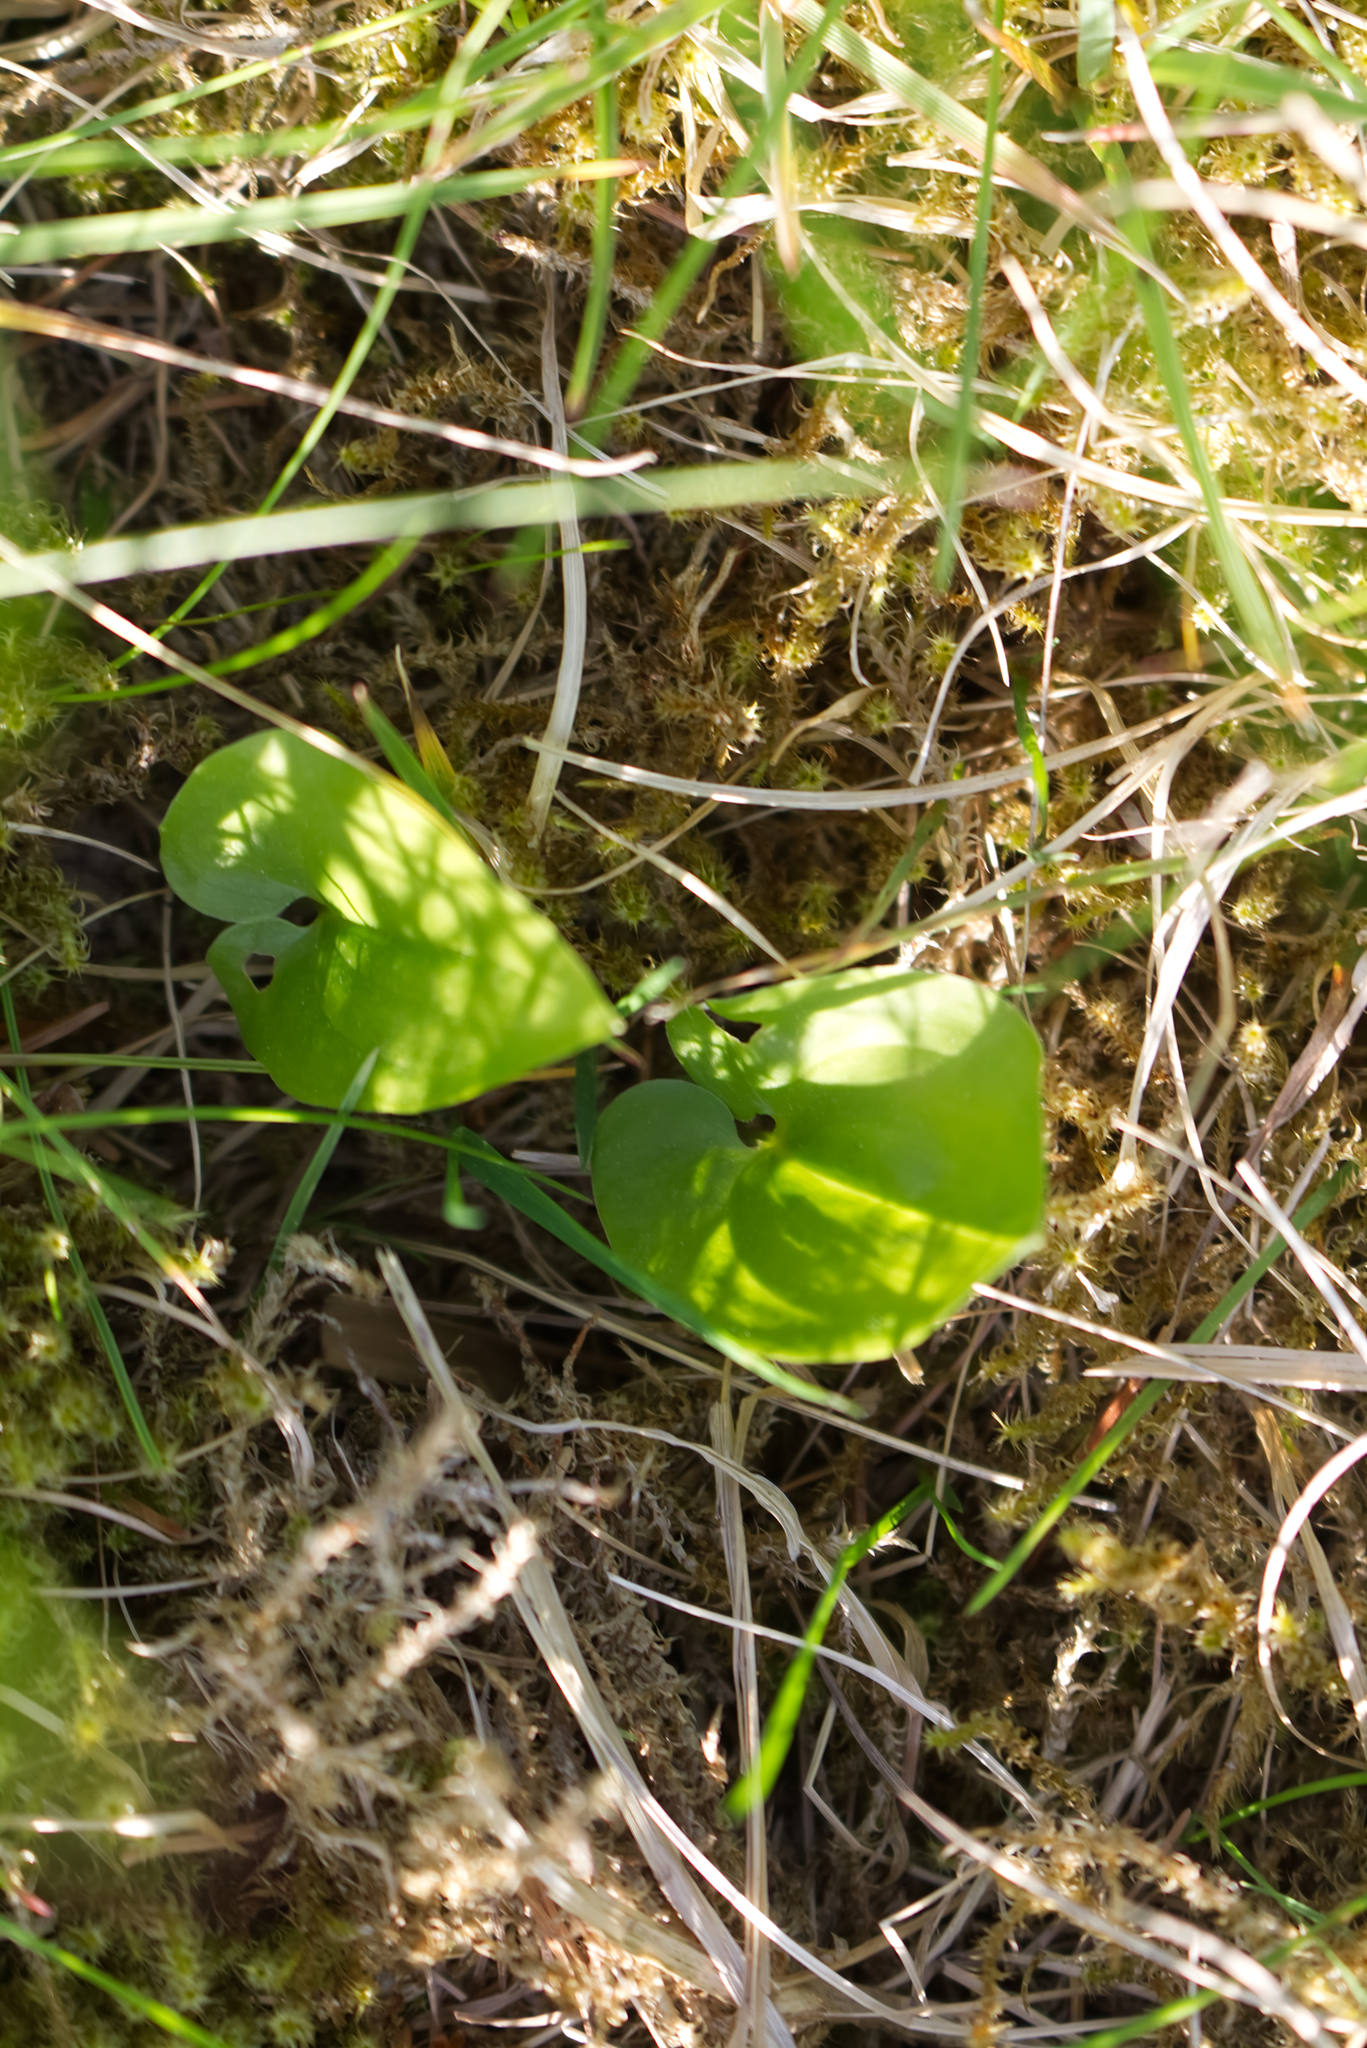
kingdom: Plantae
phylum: Tracheophyta
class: Liliopsida
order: Asparagales
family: Asparagaceae
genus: Maianthemum
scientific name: Maianthemum bifolium
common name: May lily
